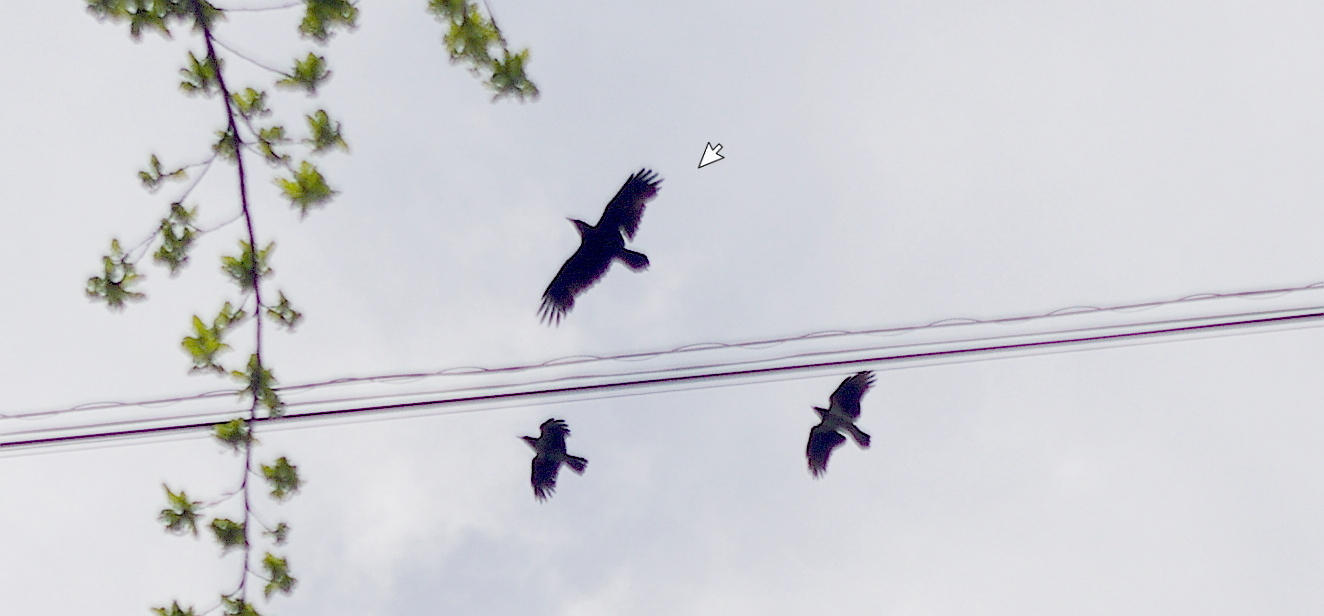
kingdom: Animalia
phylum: Chordata
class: Aves
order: Passeriformes
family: Corvidae
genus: Corvus
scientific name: Corvus corax
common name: Common raven
